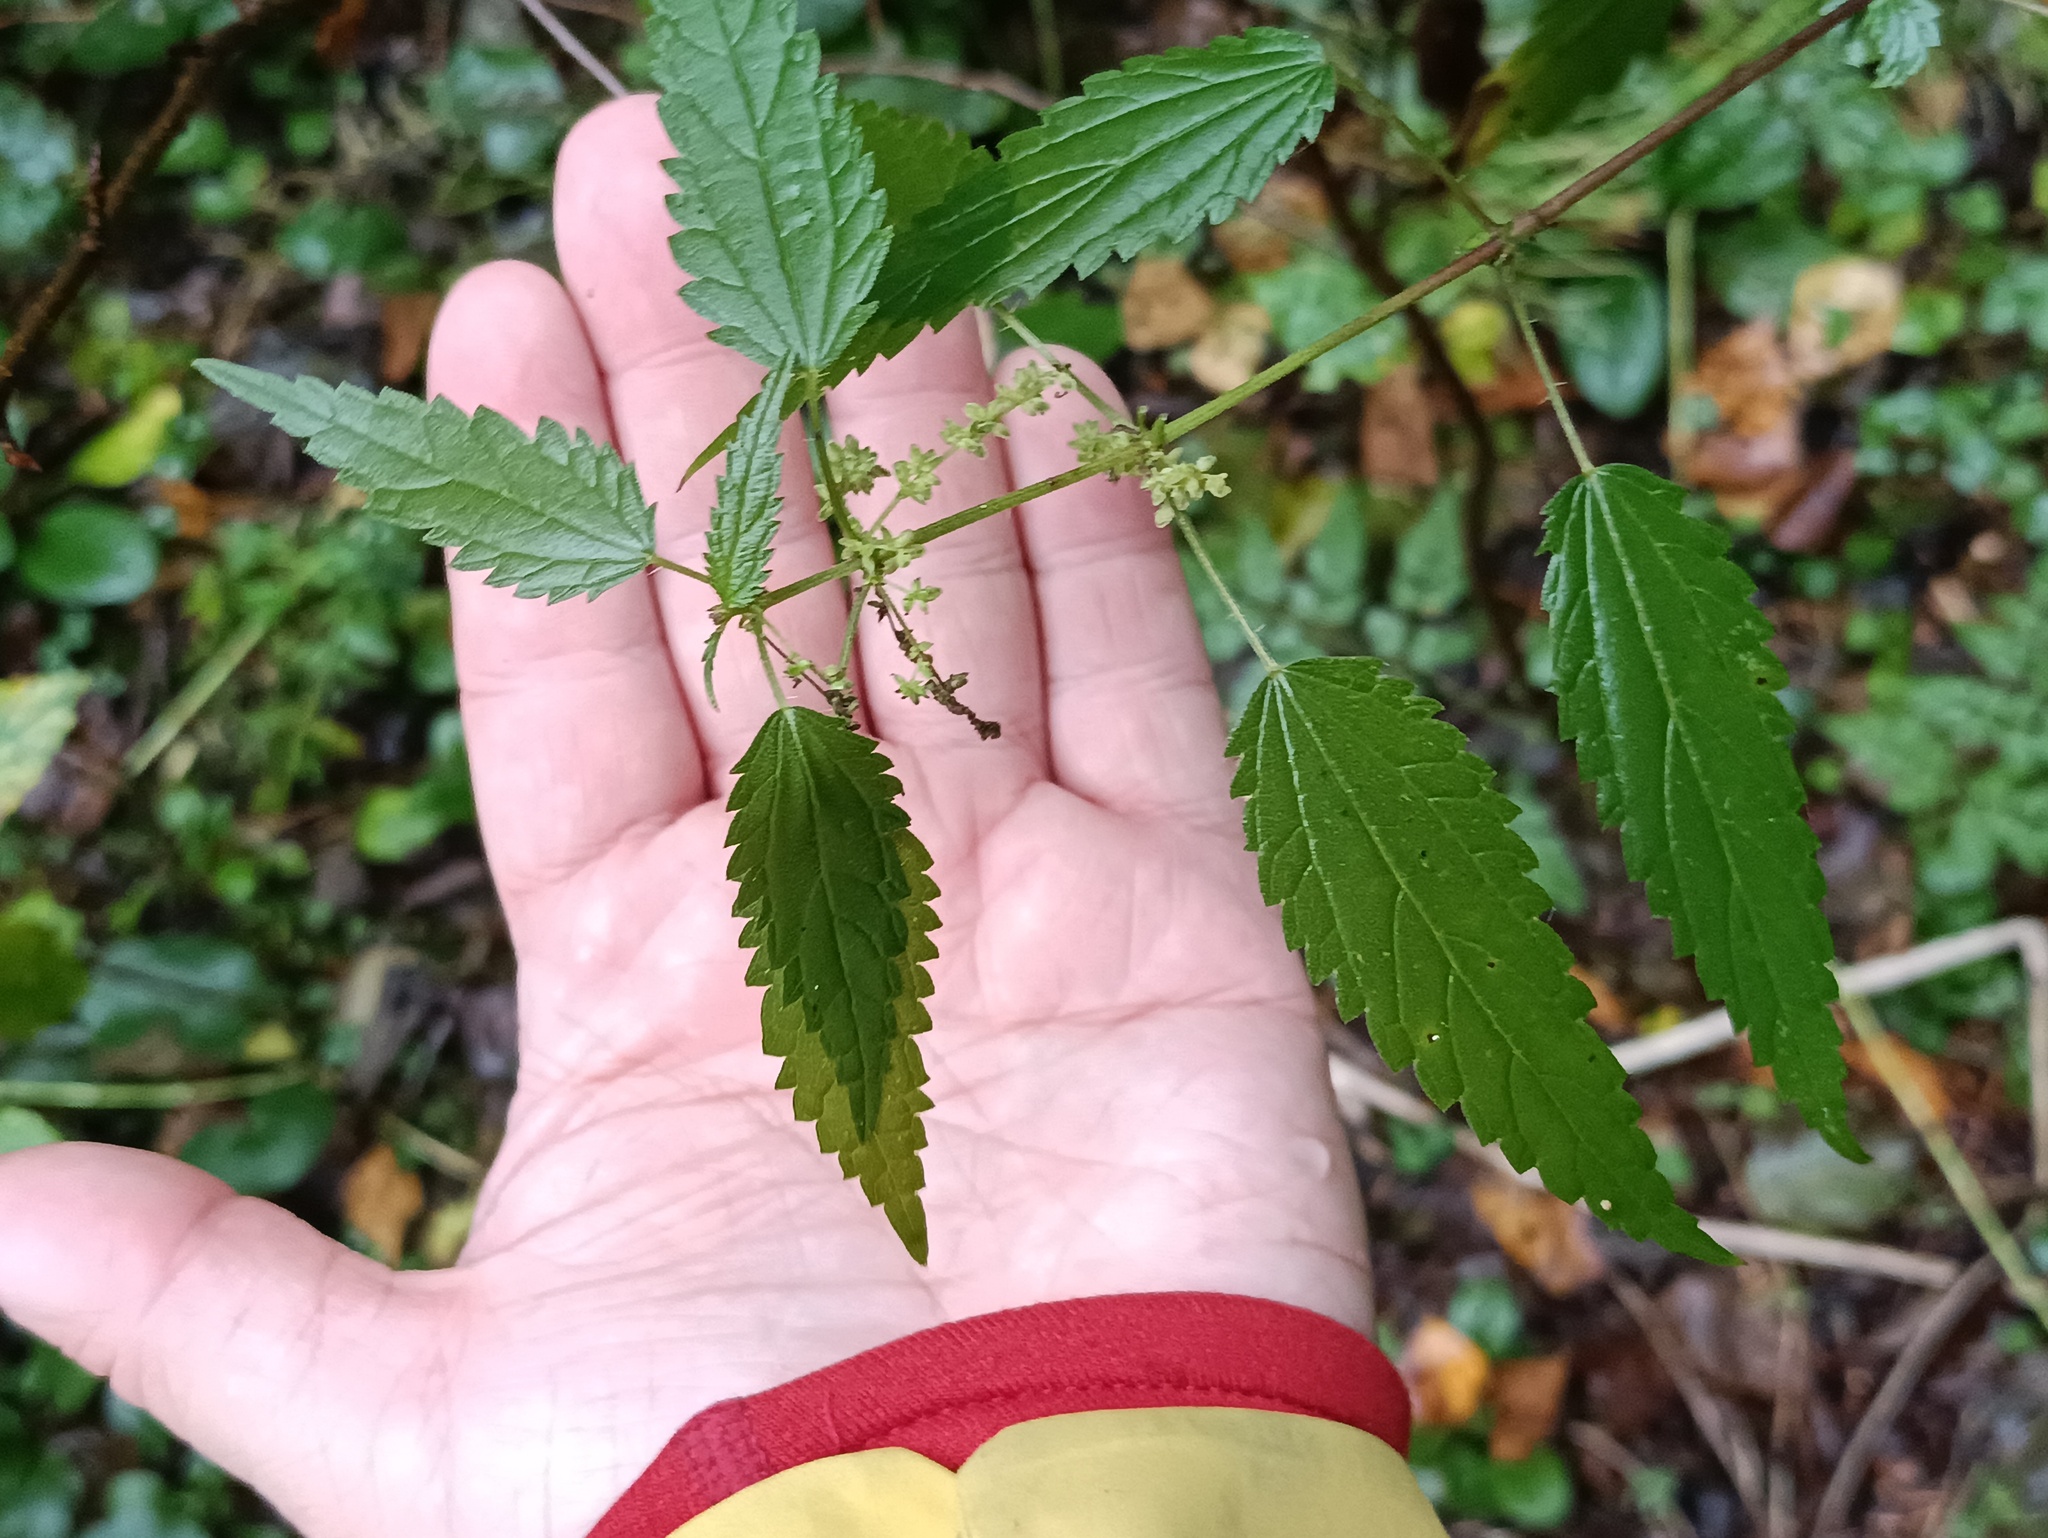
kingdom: Plantae
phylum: Tracheophyta
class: Magnoliopsida
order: Rosales
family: Urticaceae
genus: Urtica
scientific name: Urtica dioica
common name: Common nettle
